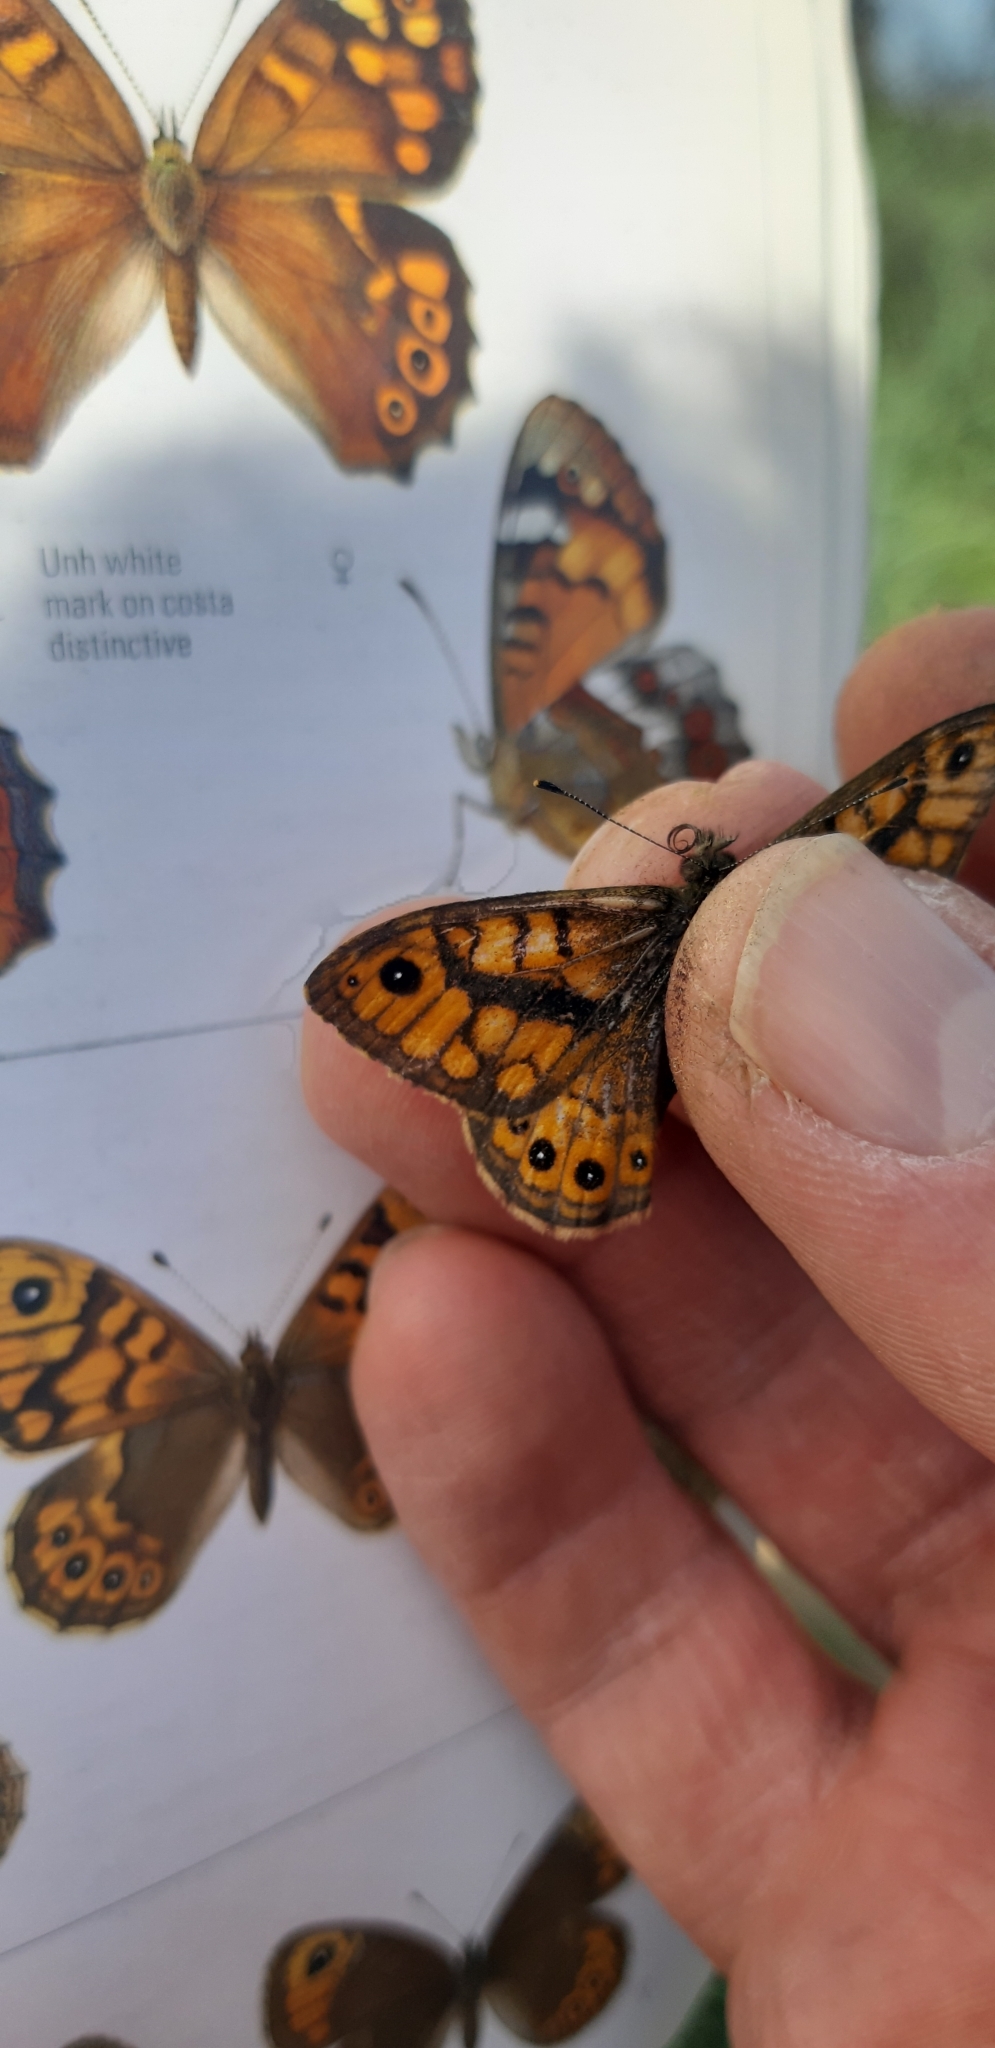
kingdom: Animalia
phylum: Arthropoda
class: Insecta
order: Lepidoptera
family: Nymphalidae
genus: Pararge
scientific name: Pararge Lasiommata megera
